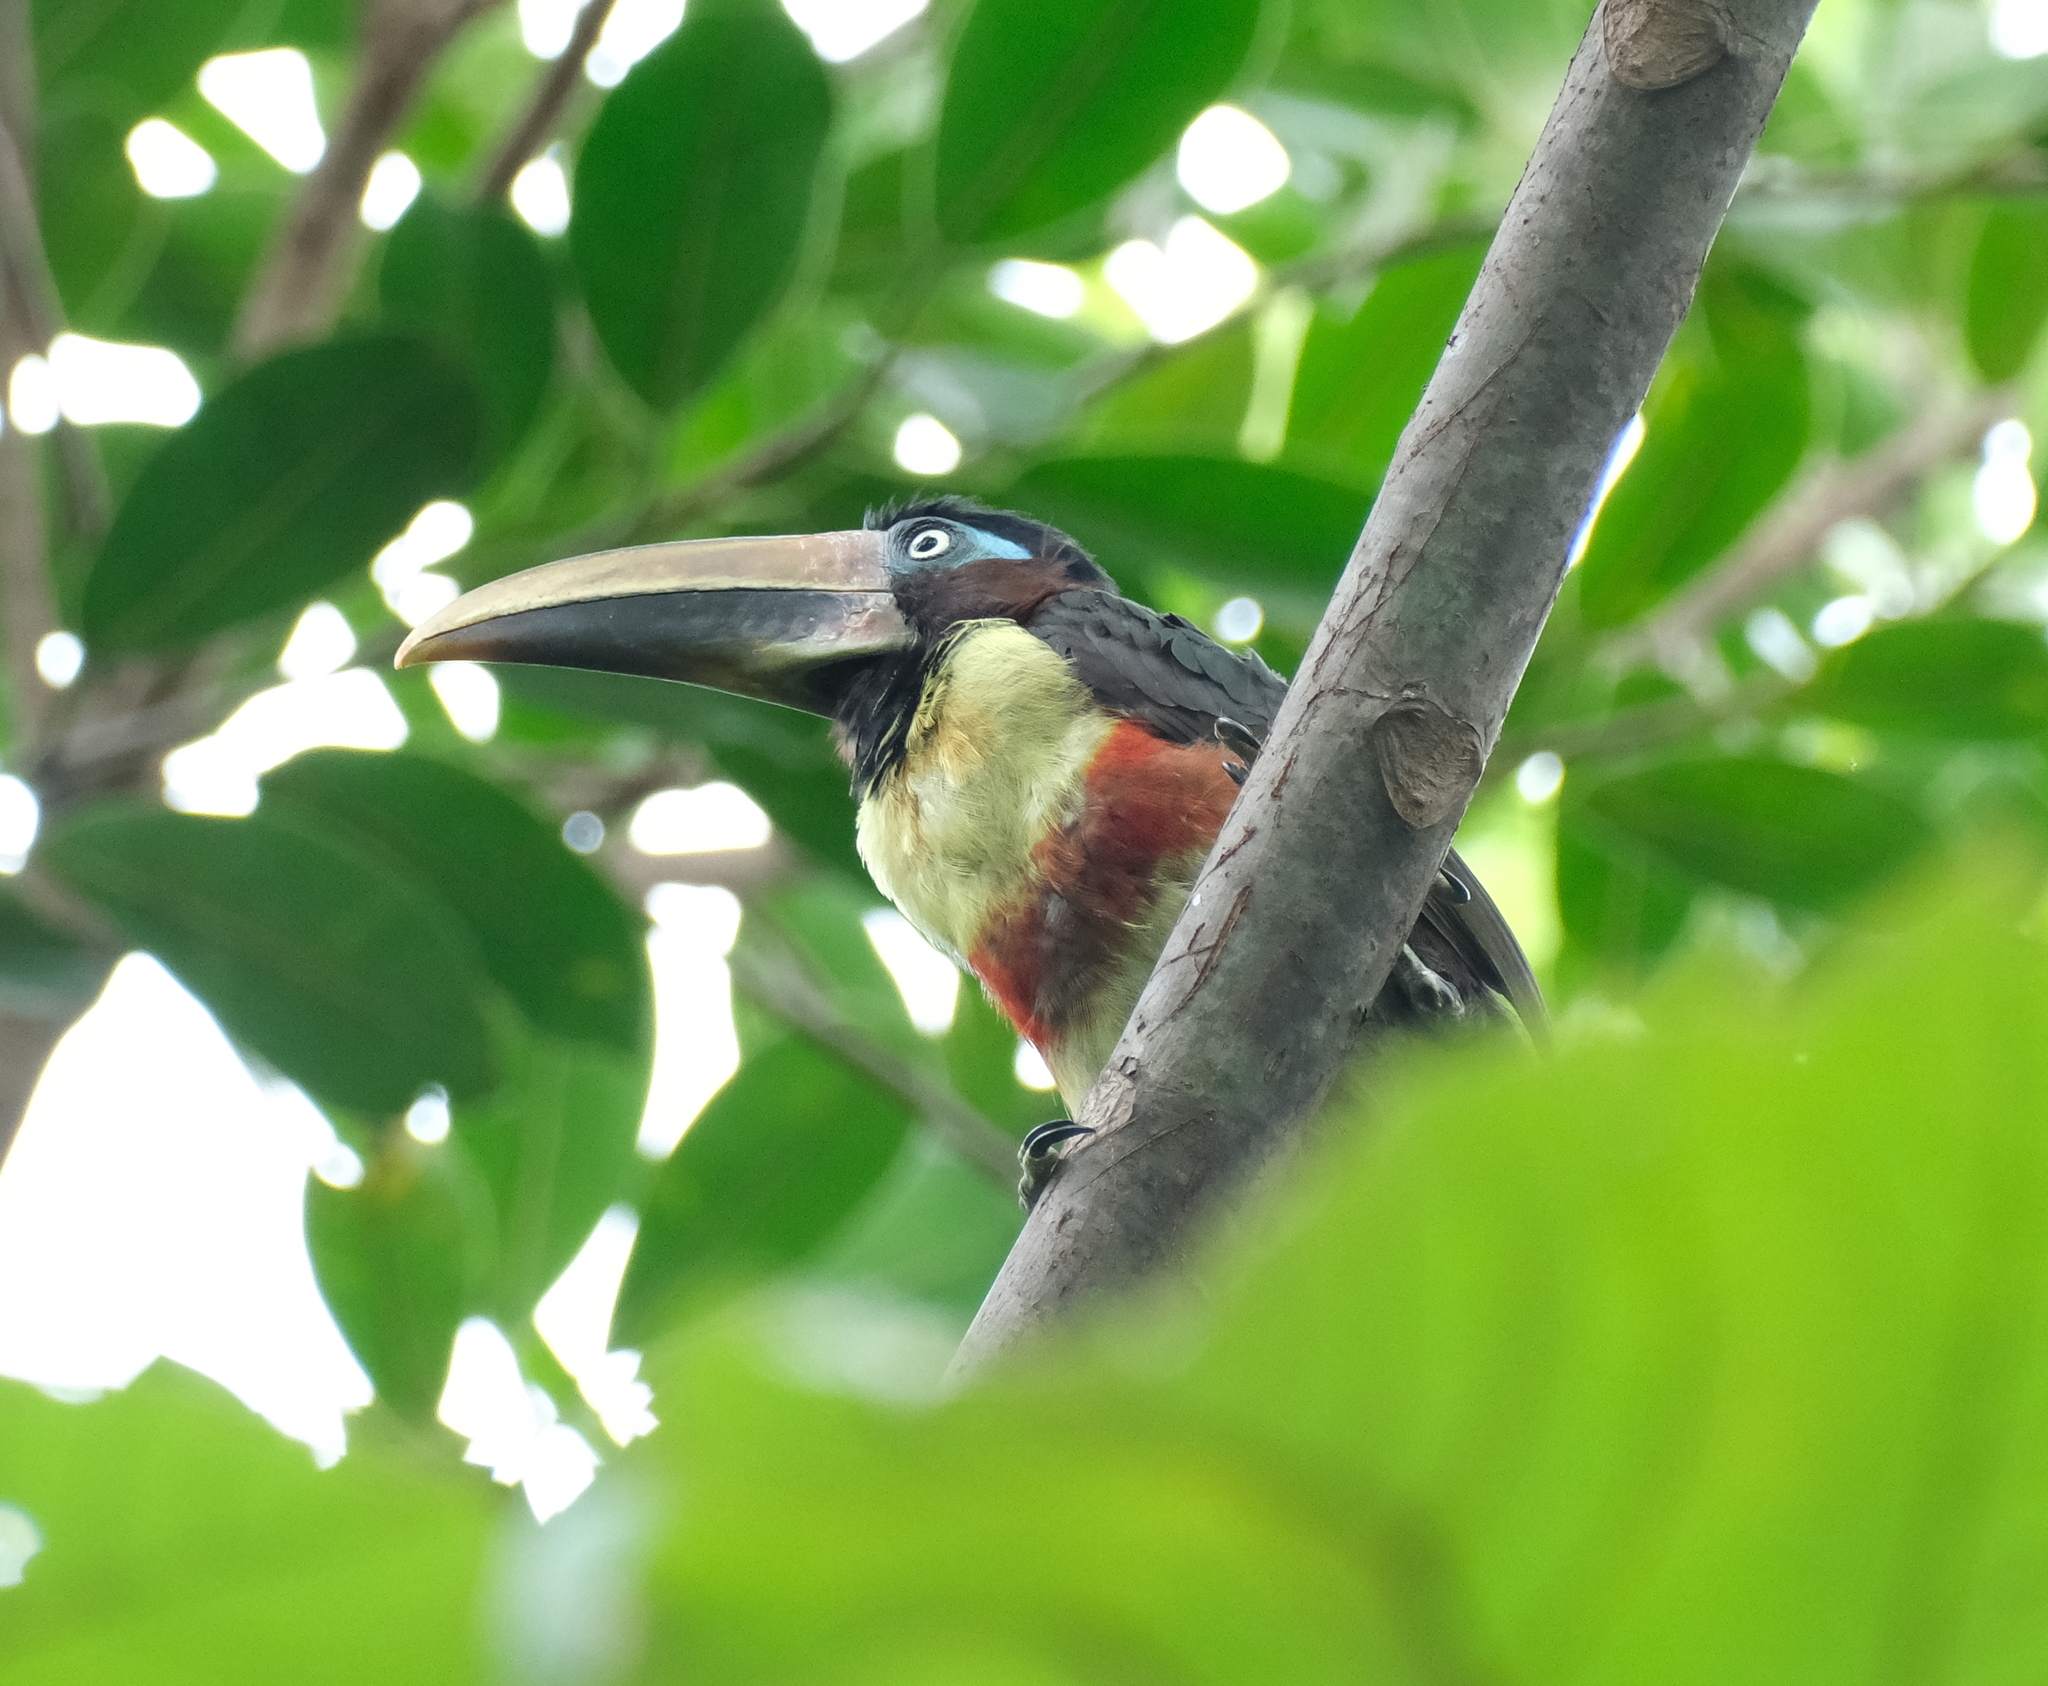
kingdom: Animalia
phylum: Chordata
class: Aves
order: Piciformes
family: Ramphastidae
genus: Pteroglossus
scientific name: Pteroglossus castanotis
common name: Chestnut-eared aracari
